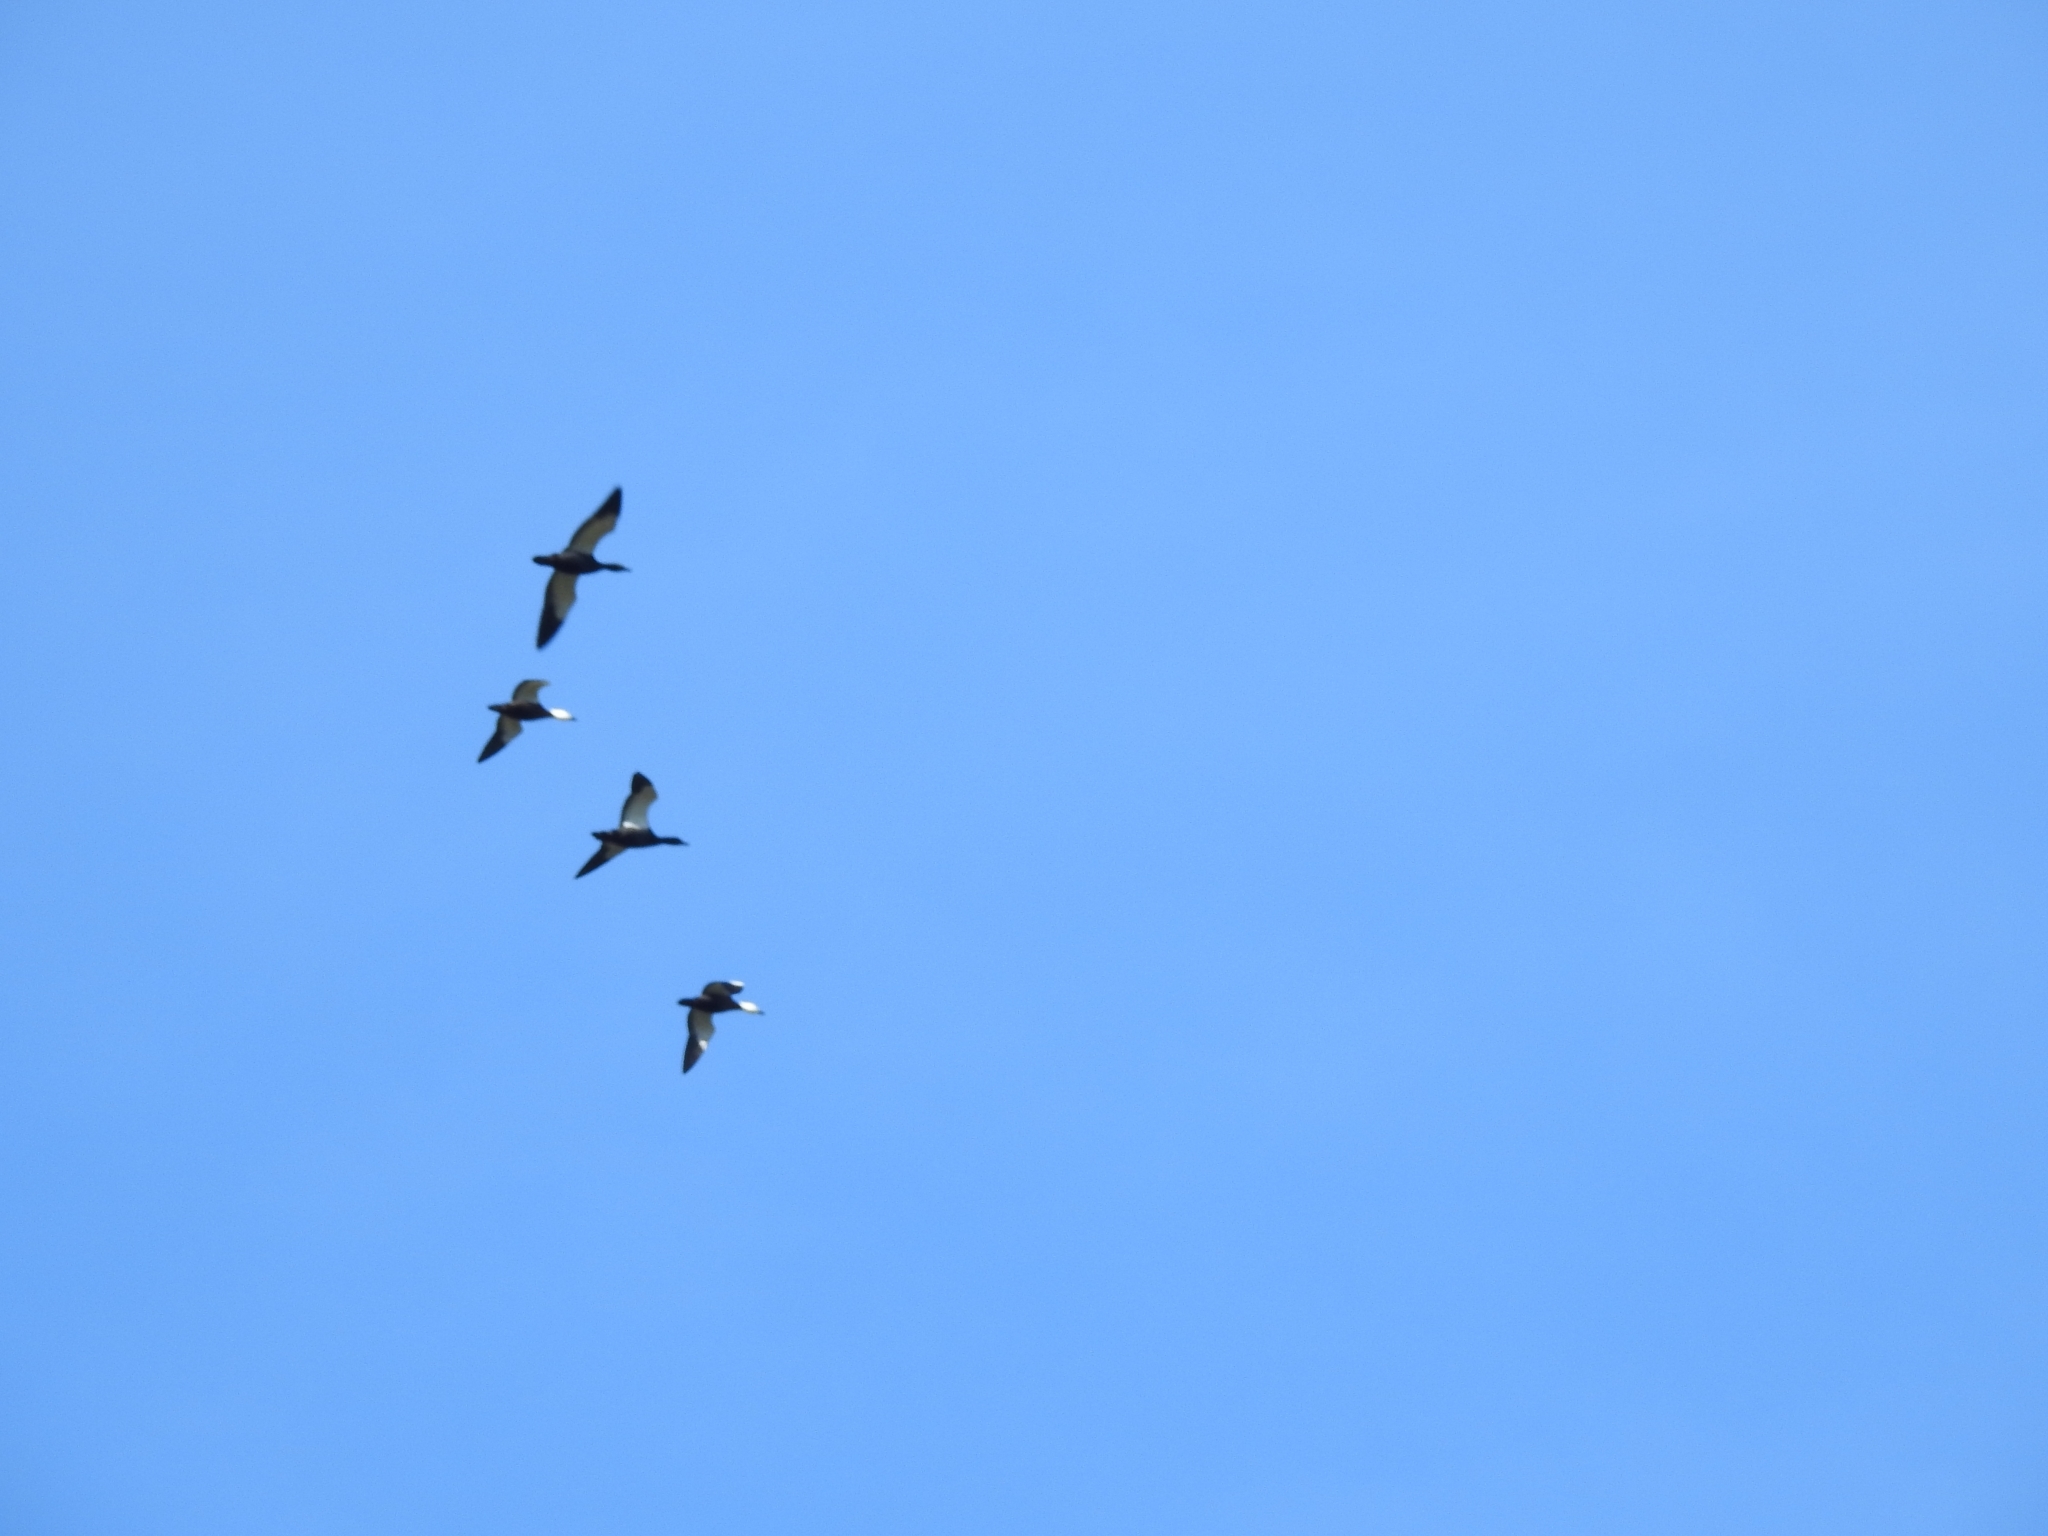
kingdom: Animalia
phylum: Chordata
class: Aves
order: Anseriformes
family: Anatidae
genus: Tadorna
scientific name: Tadorna variegata
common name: Paradise shelduck
